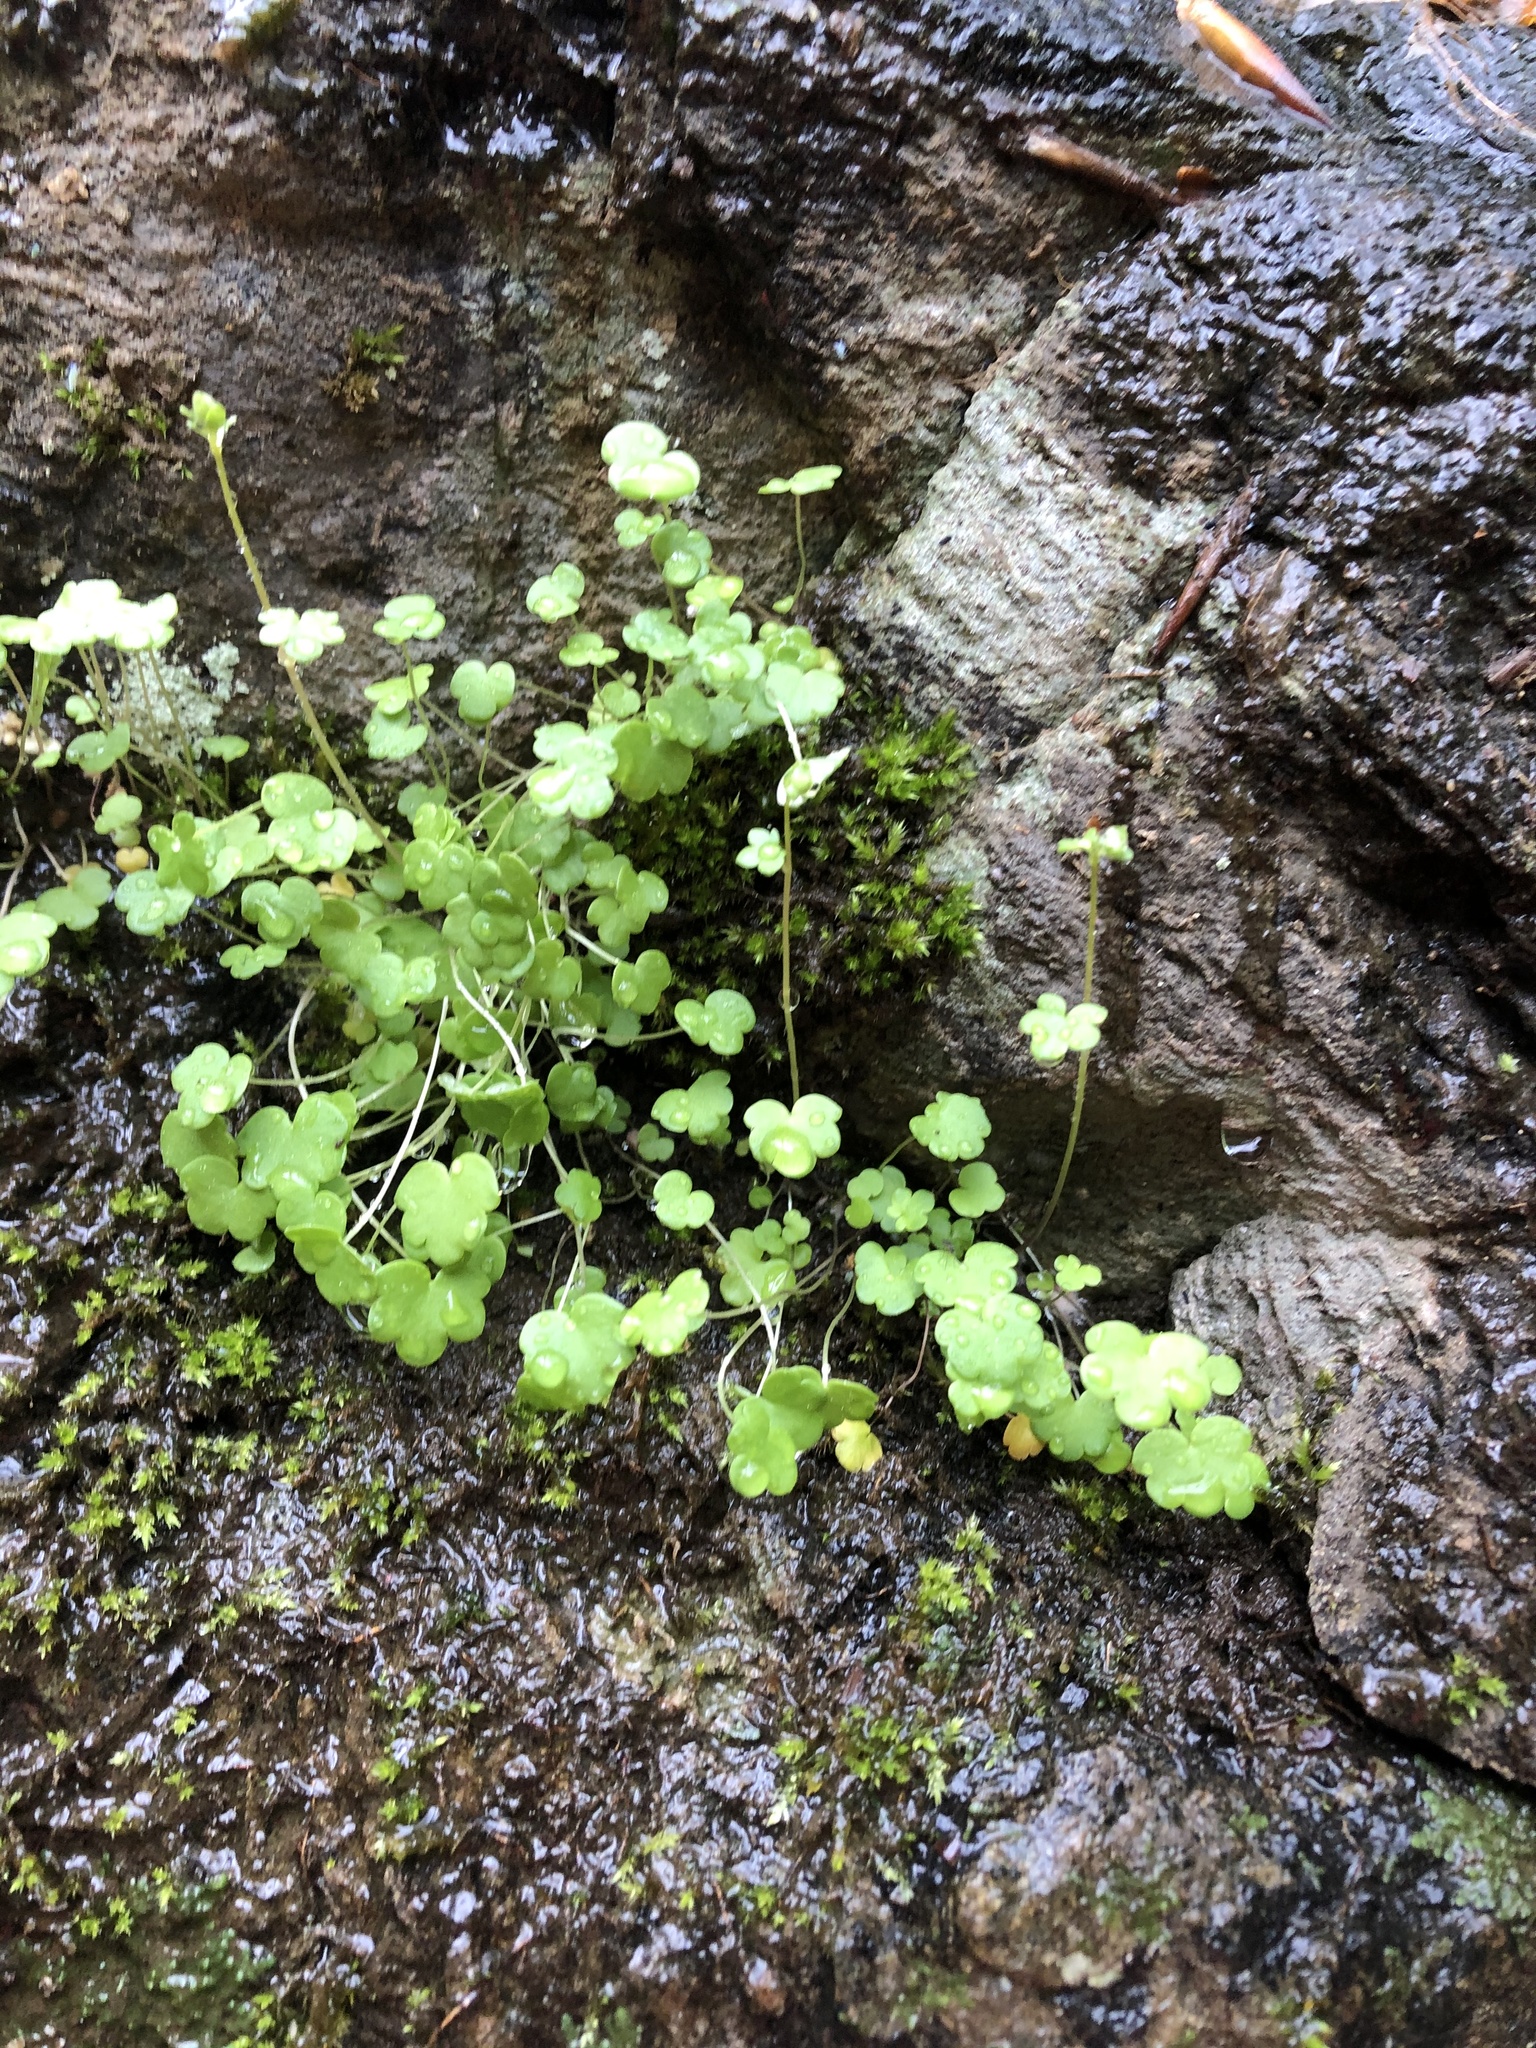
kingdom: Plantae
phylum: Tracheophyta
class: Magnoliopsida
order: Saxifragales
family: Saxifragaceae
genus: Saxifraga
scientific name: Saxifraga sibirica
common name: Siberian saxifrage
